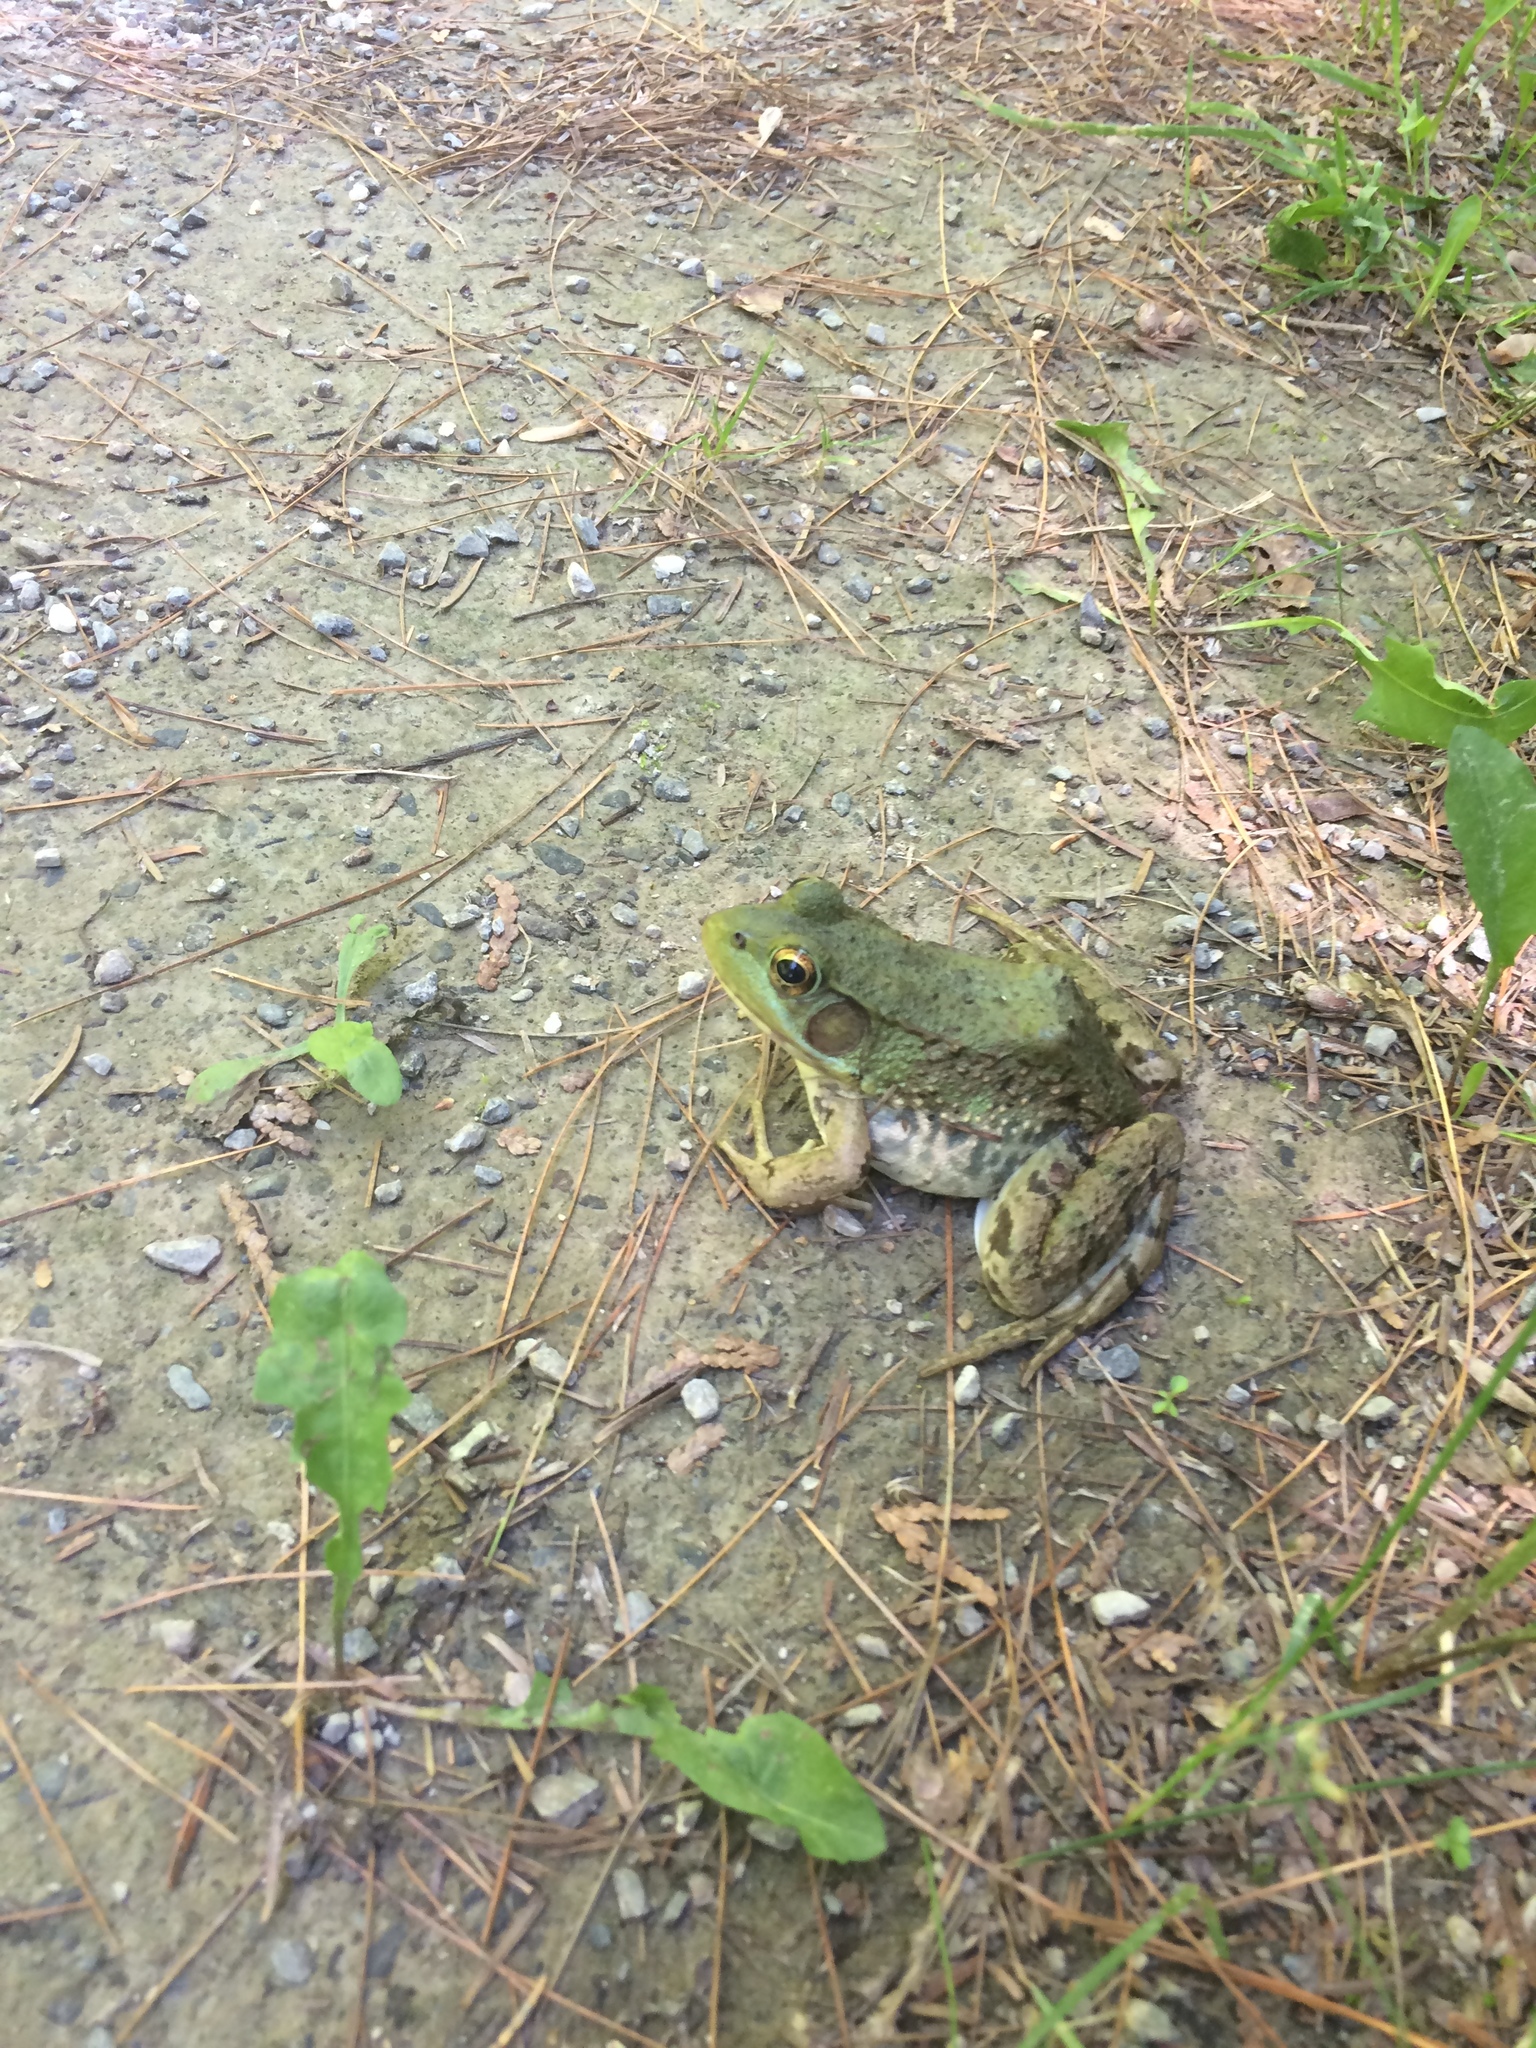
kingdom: Animalia
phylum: Chordata
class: Amphibia
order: Anura
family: Ranidae
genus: Lithobates
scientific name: Lithobates clamitans
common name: Green frog
